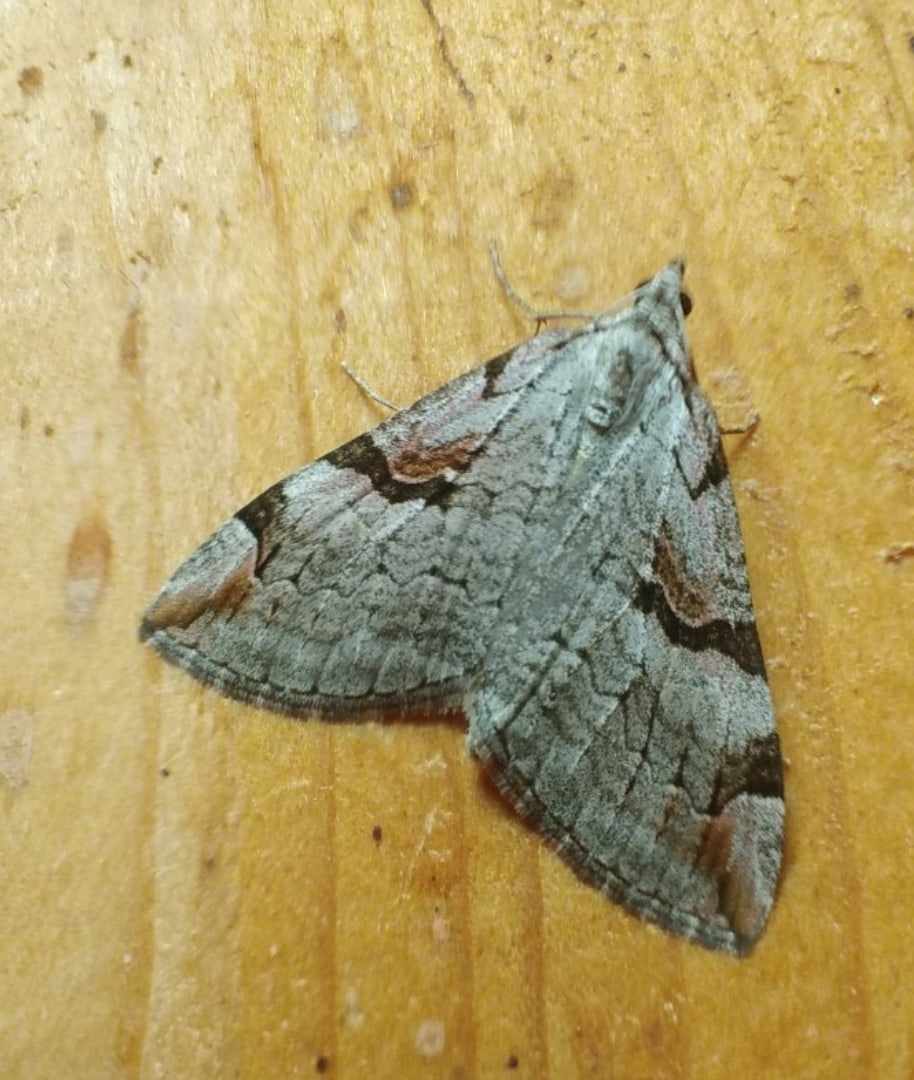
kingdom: Animalia
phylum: Arthropoda
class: Insecta
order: Lepidoptera
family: Geometridae
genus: Aplocera
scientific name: Aplocera praeformata
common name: Purple treble-bar
